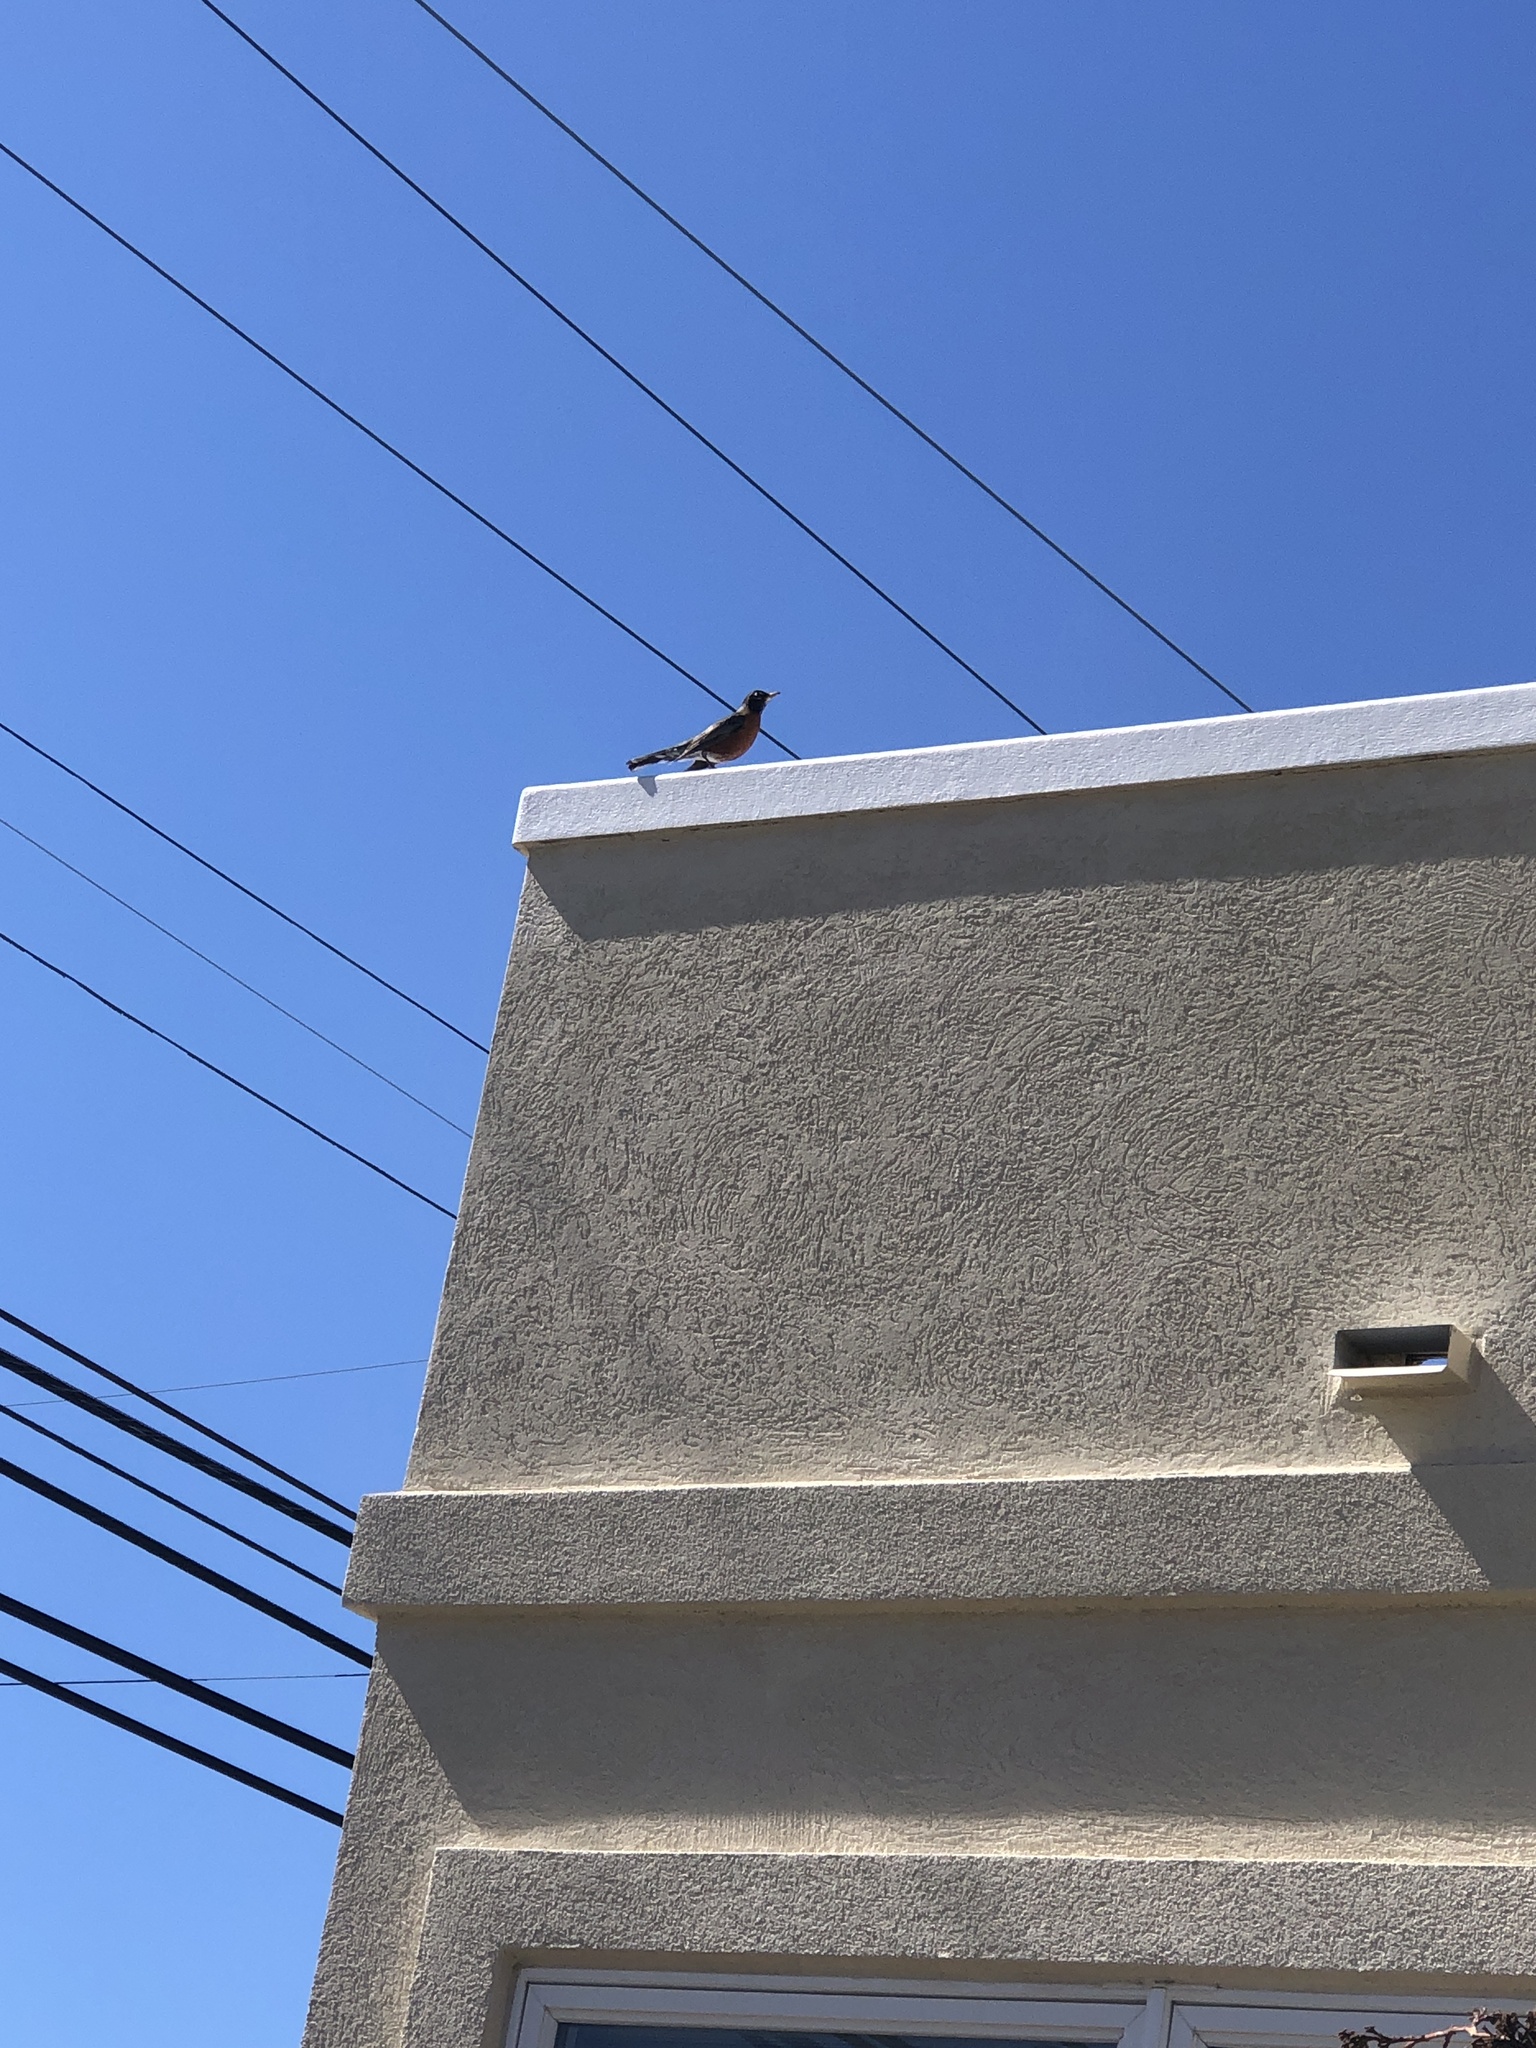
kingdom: Animalia
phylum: Chordata
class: Aves
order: Passeriformes
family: Turdidae
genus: Turdus
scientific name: Turdus migratorius
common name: American robin
